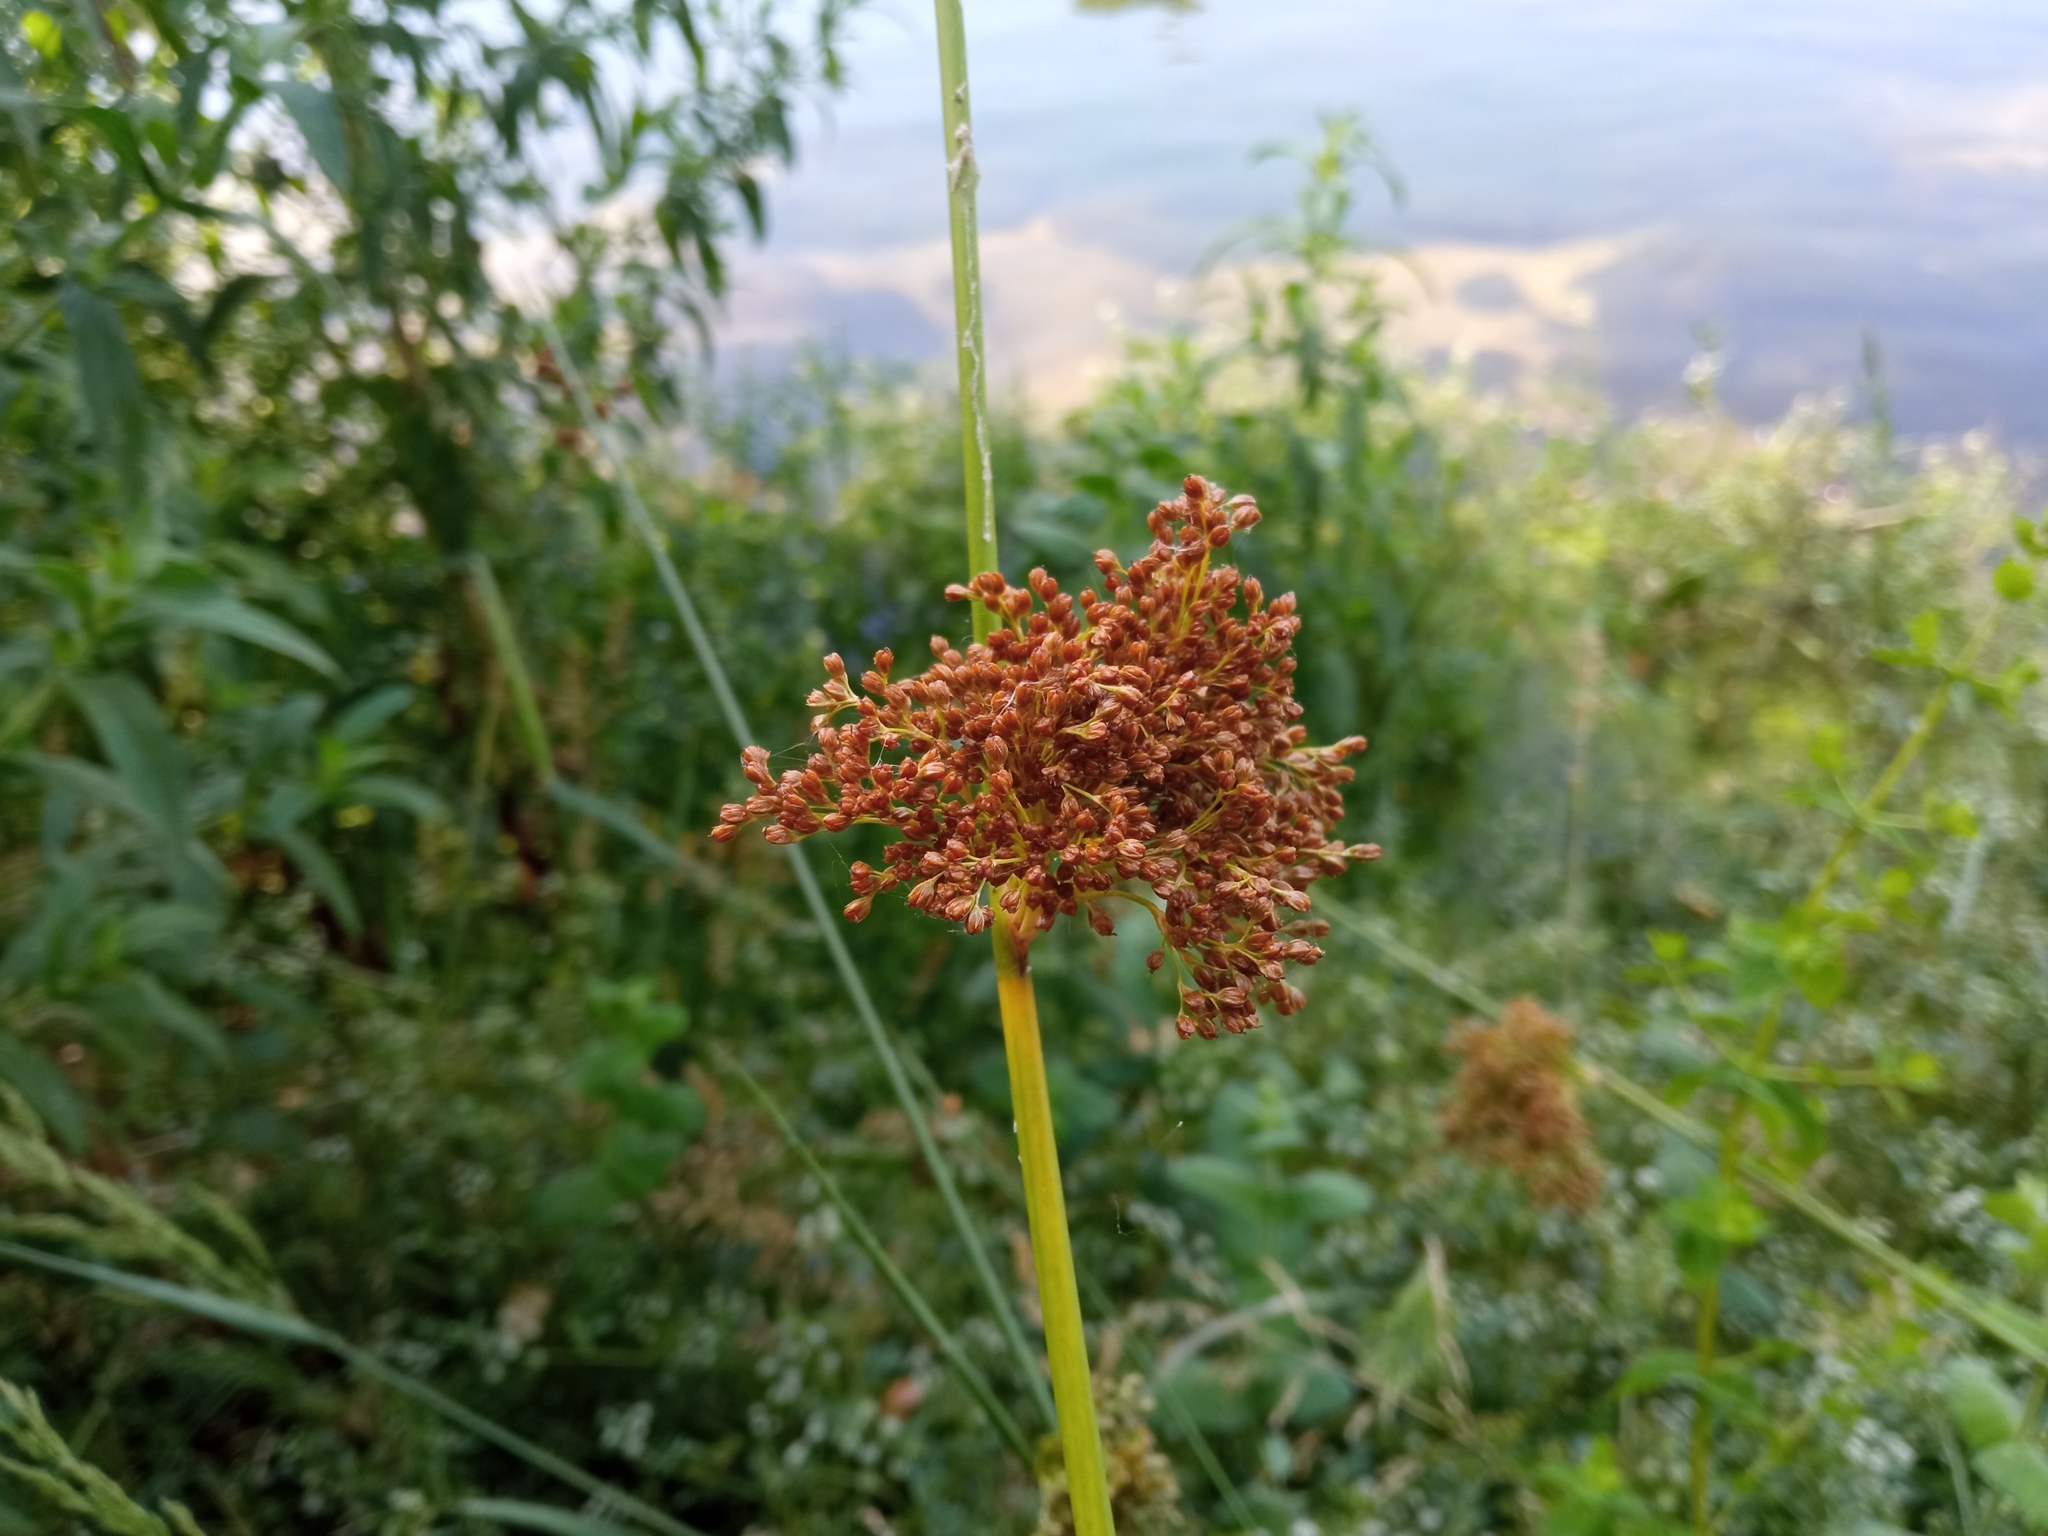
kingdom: Plantae
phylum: Tracheophyta
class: Liliopsida
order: Poales
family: Juncaceae
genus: Juncus
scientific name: Juncus effusus
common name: Soft rush
